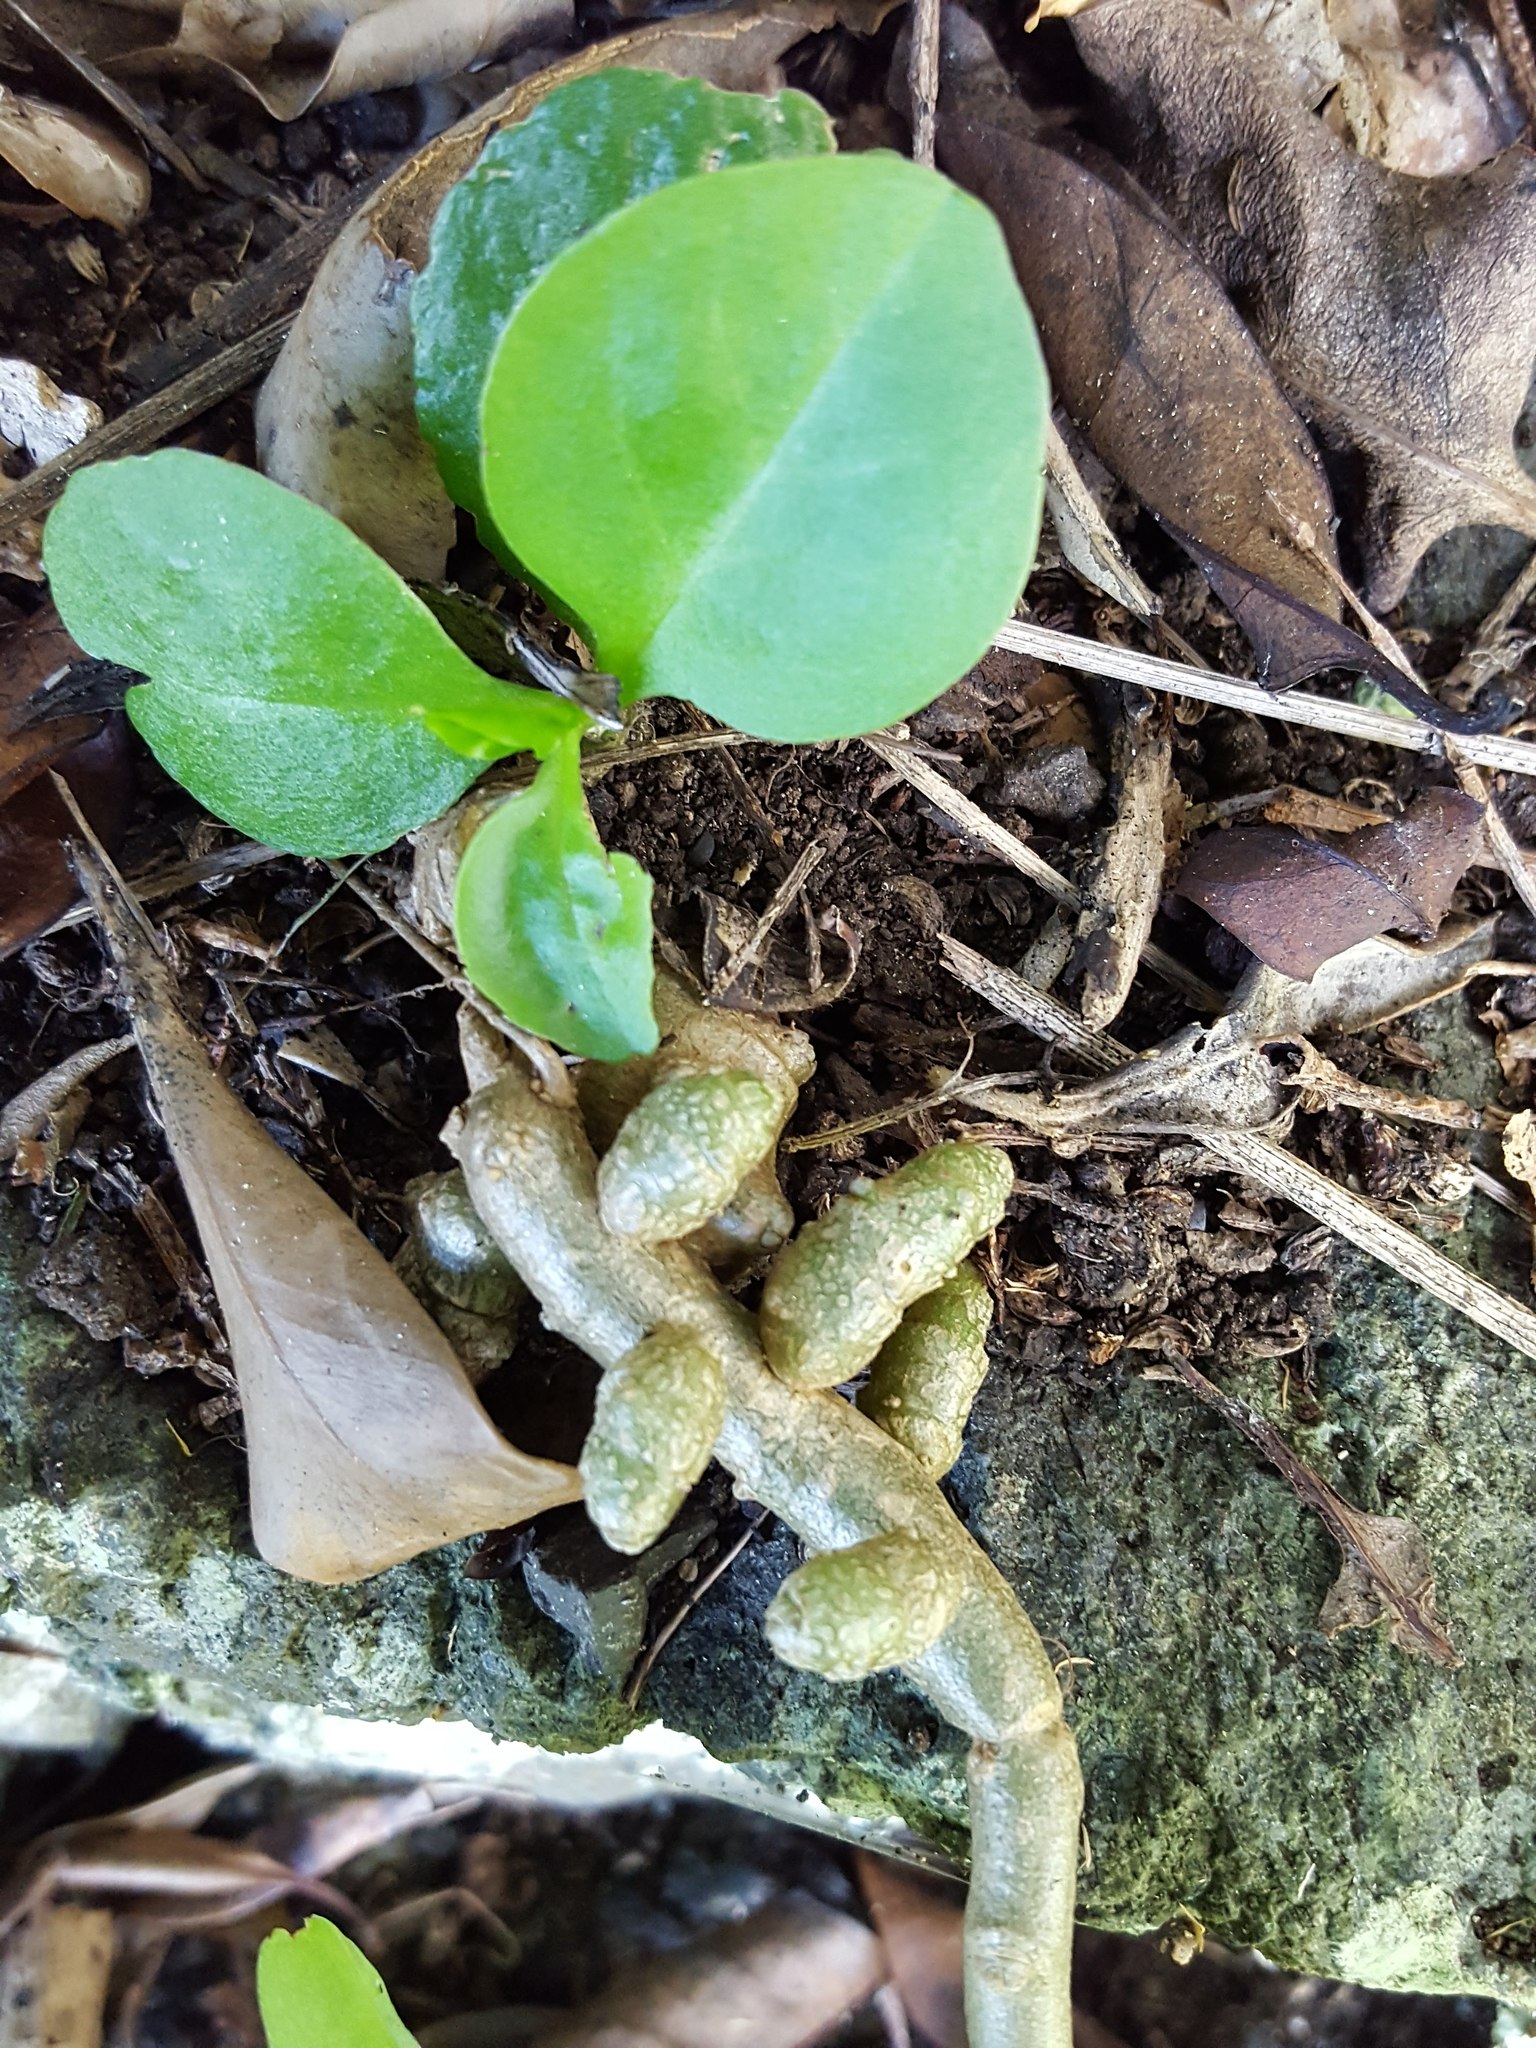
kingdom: Plantae
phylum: Tracheophyta
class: Magnoliopsida
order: Caryophyllales
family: Basellaceae
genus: Anredera
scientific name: Anredera cordifolia
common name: Heartleaf madeiravine
